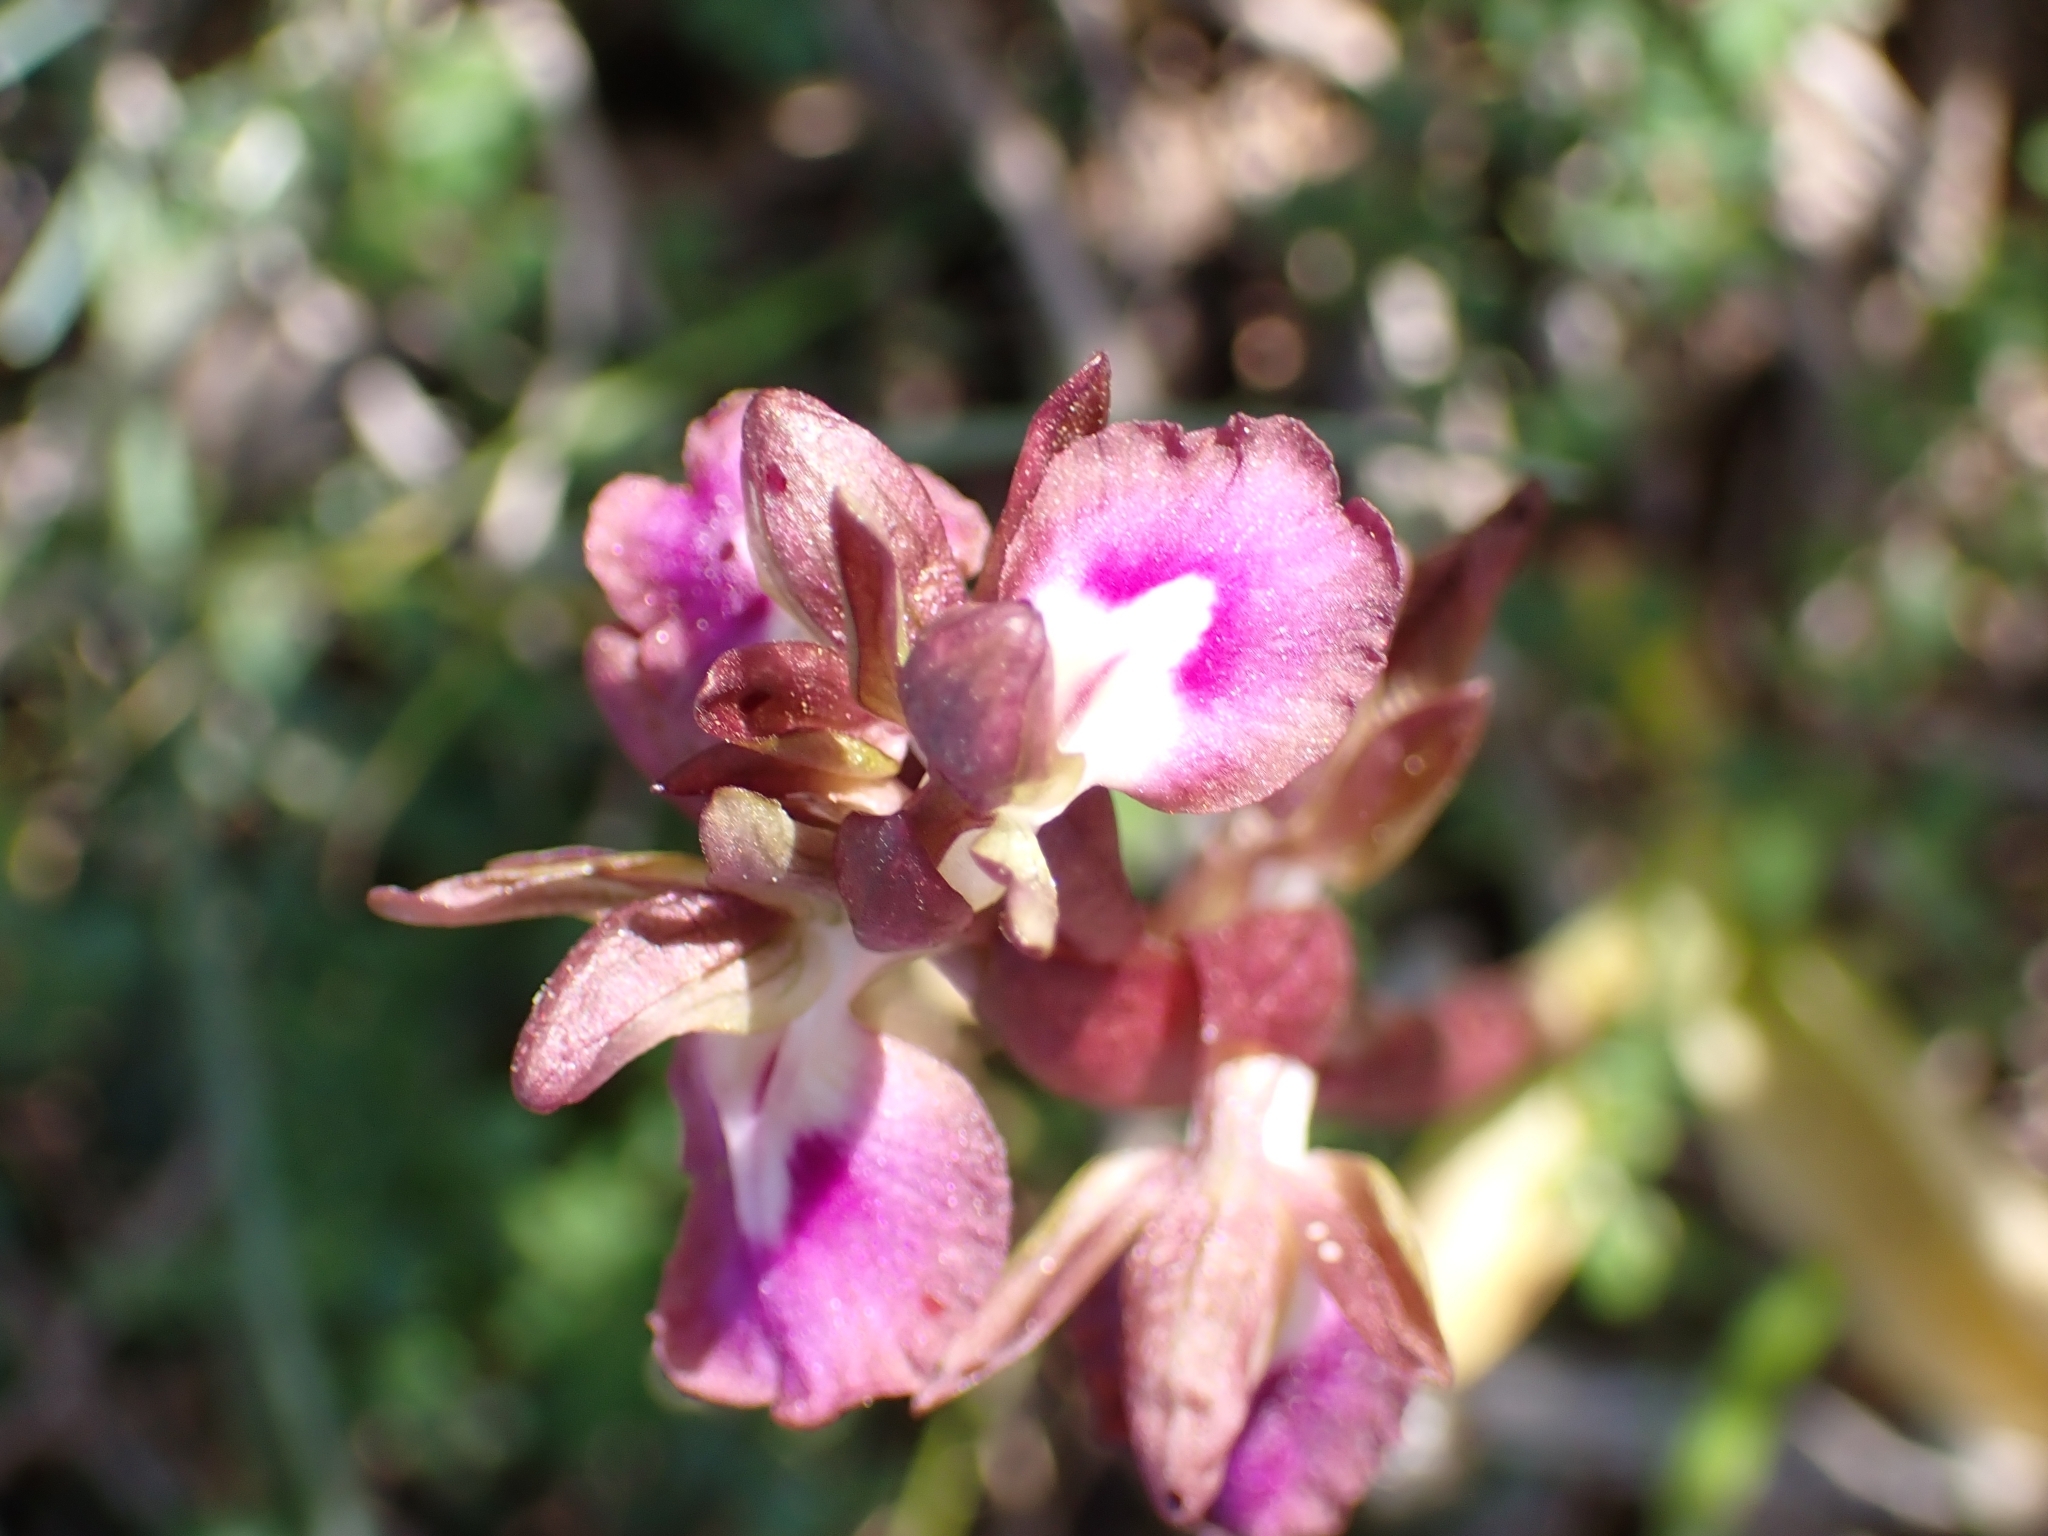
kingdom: Plantae
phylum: Tracheophyta
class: Liliopsida
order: Asparagales
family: Orchidaceae
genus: Anacamptis
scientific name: Anacamptis collina
